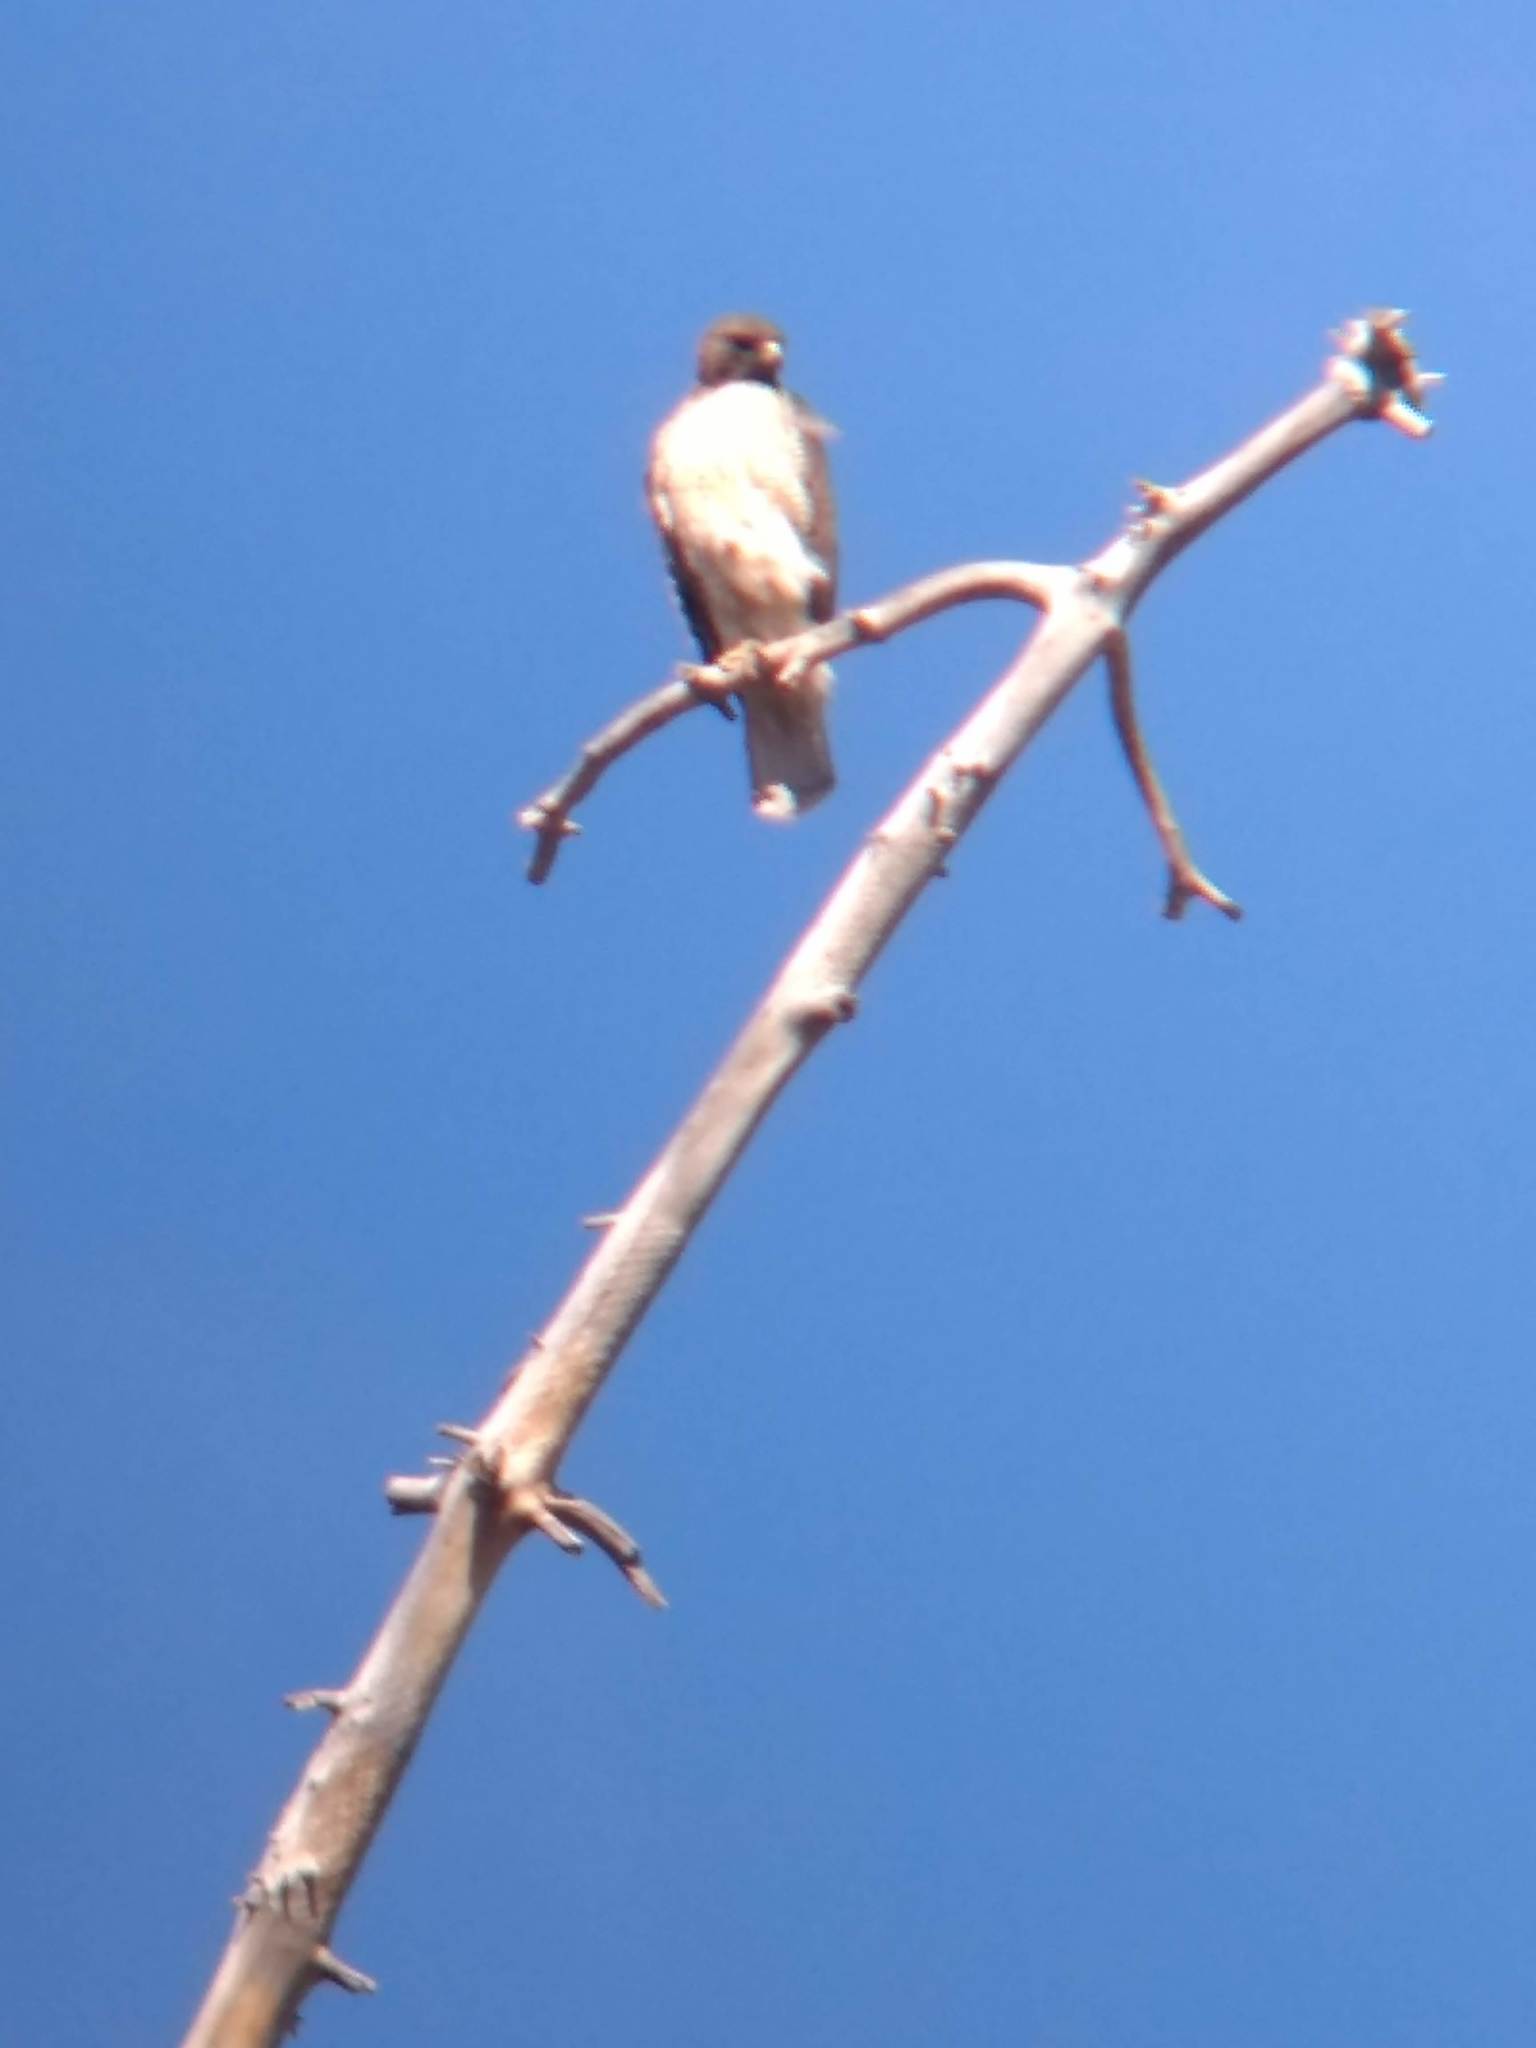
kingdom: Animalia
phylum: Chordata
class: Aves
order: Accipitriformes
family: Accipitridae
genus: Buteo
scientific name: Buteo jamaicensis
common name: Red-tailed hawk
